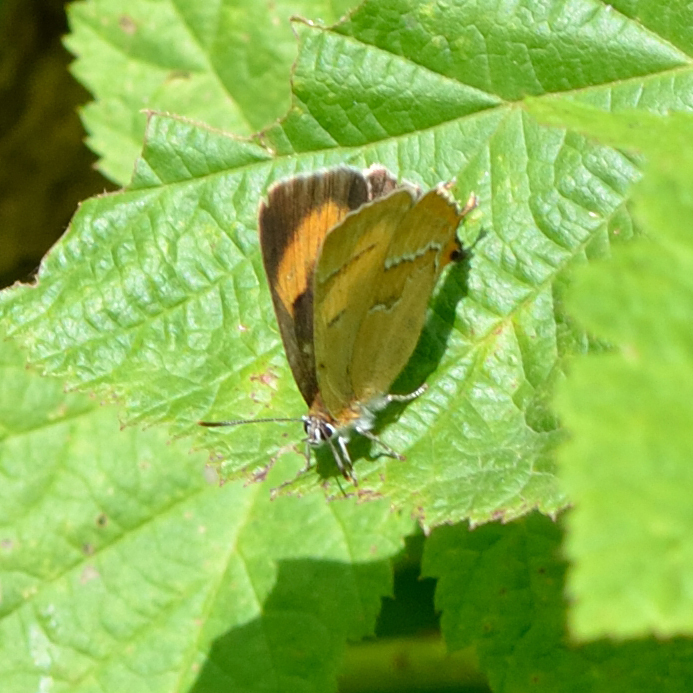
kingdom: Animalia
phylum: Arthropoda
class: Insecta
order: Lepidoptera
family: Lycaenidae
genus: Thecla
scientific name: Thecla betulae
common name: Brown hairstreak
